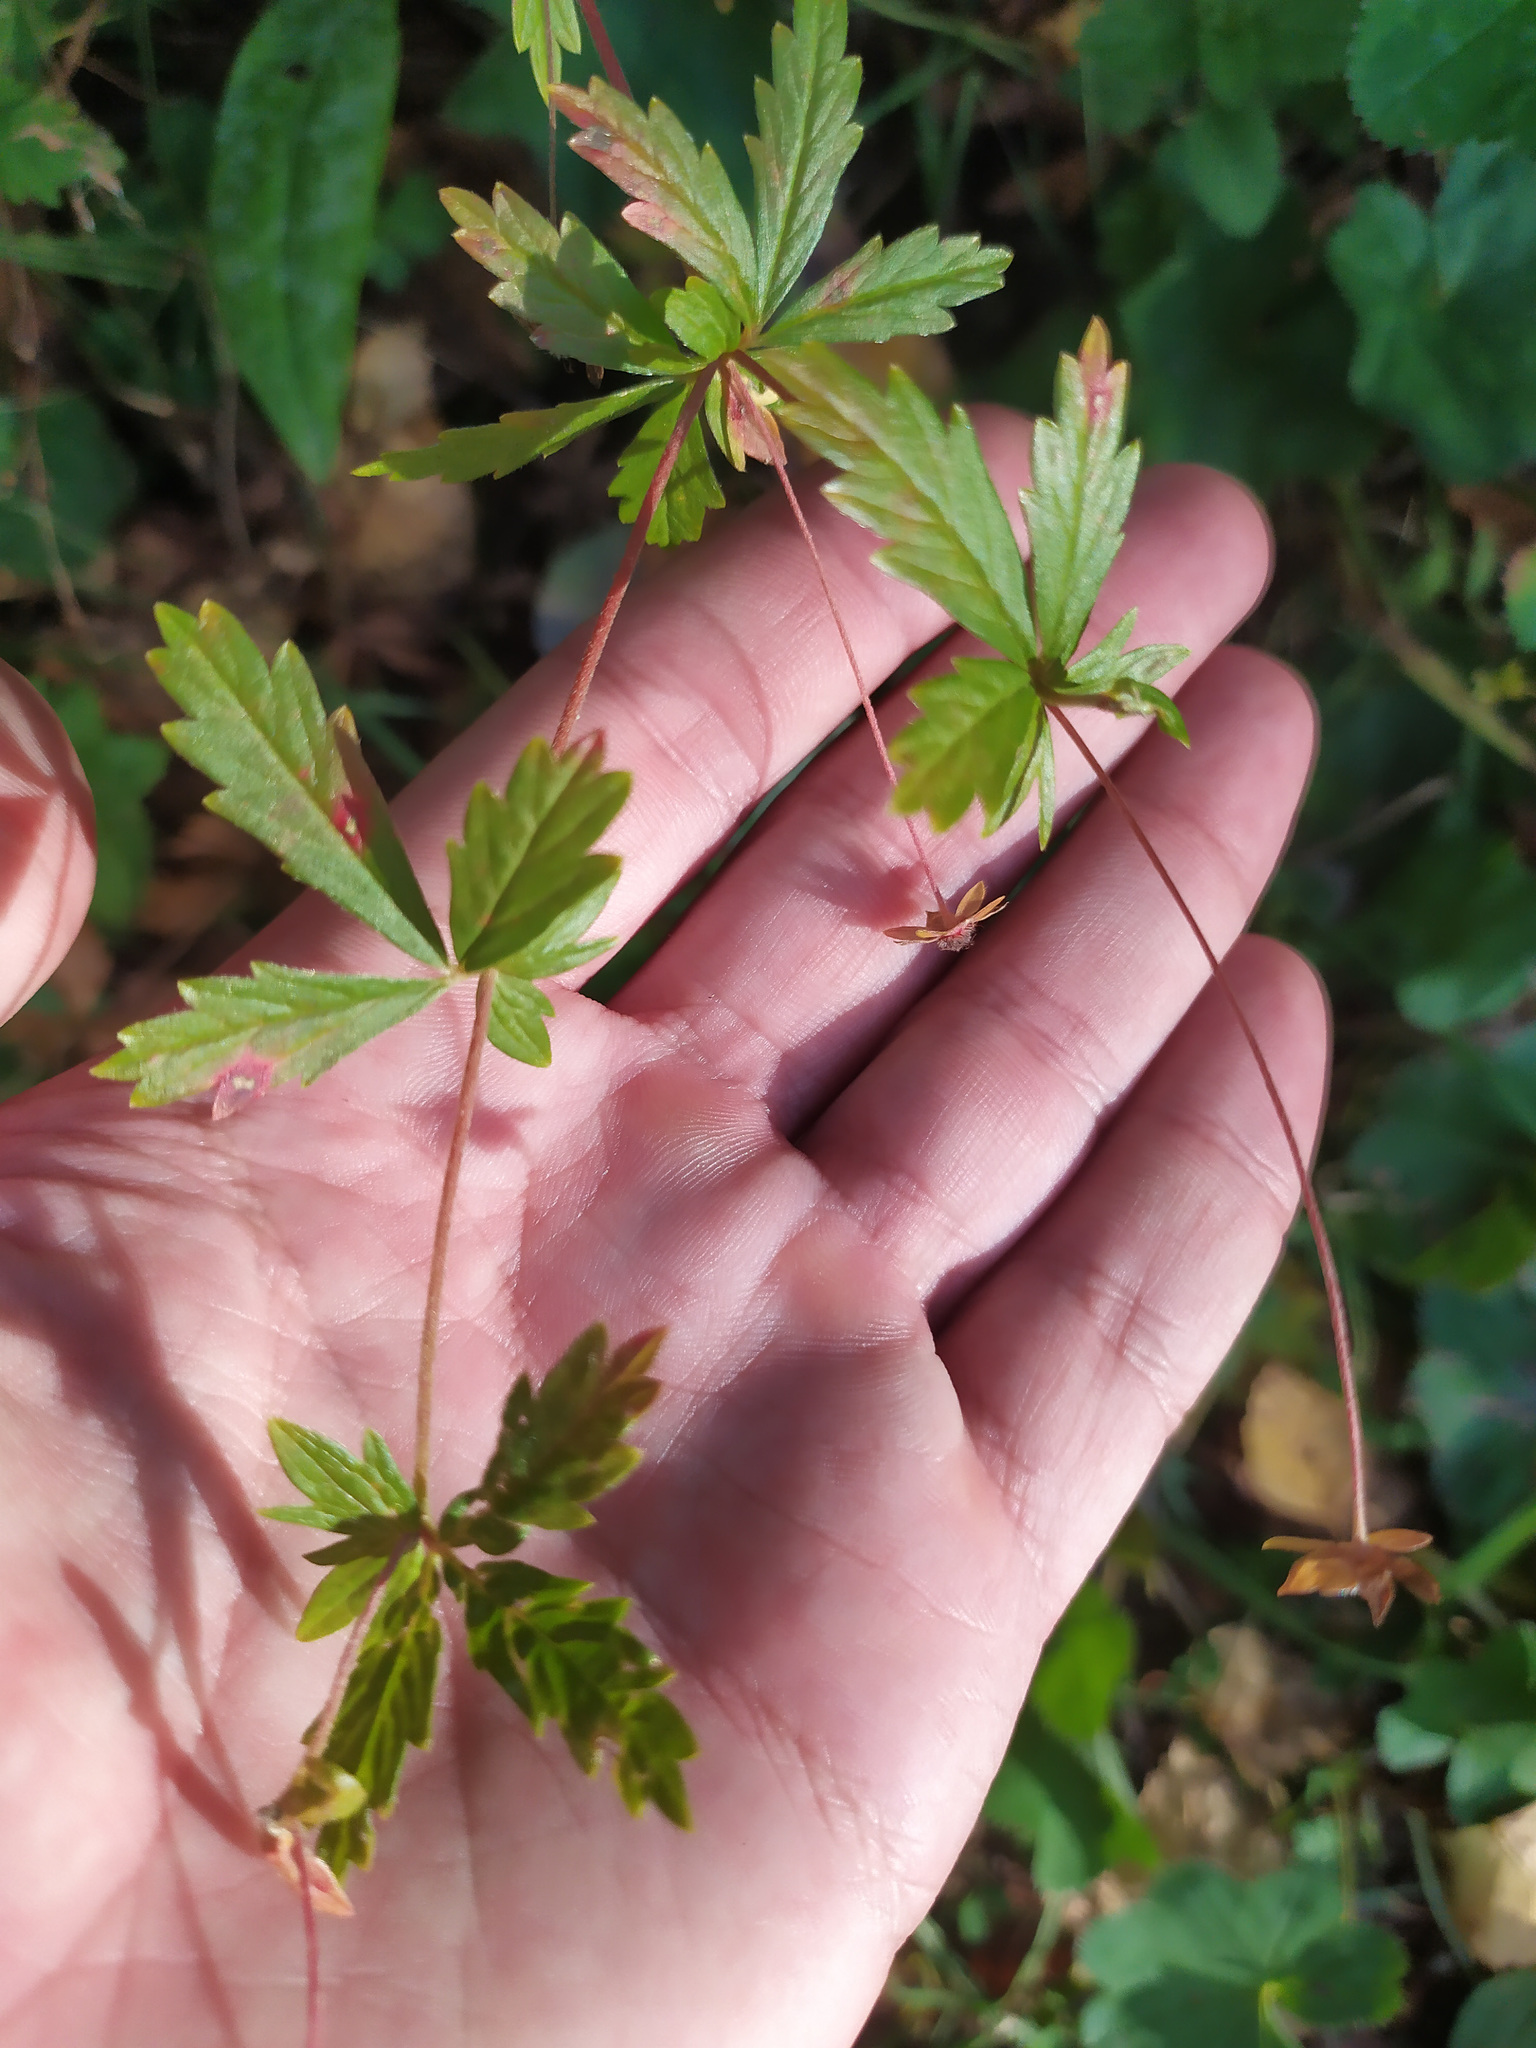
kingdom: Plantae
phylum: Tracheophyta
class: Magnoliopsida
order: Rosales
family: Rosaceae
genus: Potentilla
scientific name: Potentilla erecta
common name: Tormentil
